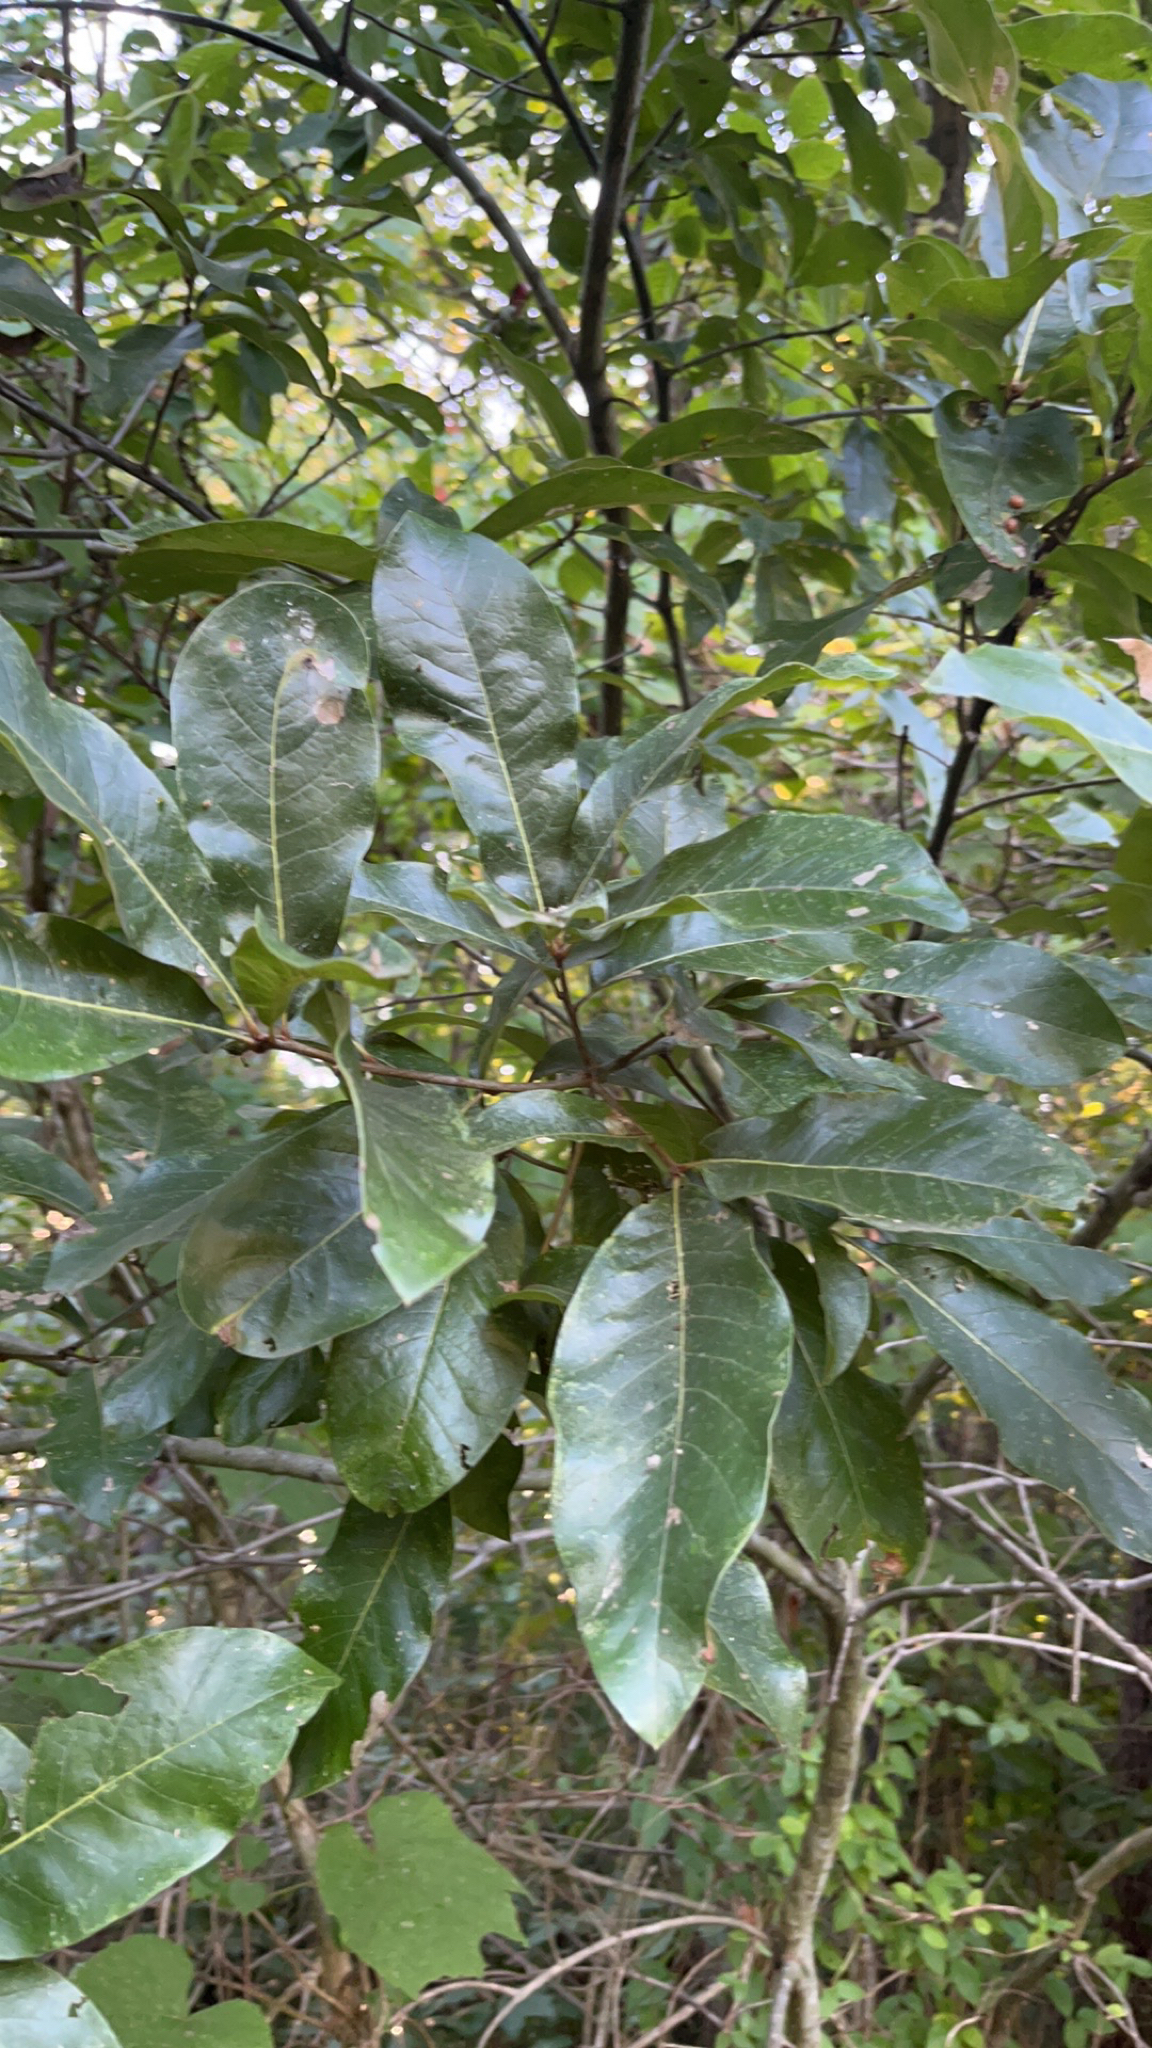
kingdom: Plantae
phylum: Tracheophyta
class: Magnoliopsida
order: Fagales
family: Fagaceae
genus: Quercus
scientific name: Quercus imbricaria
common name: Shingle oak
